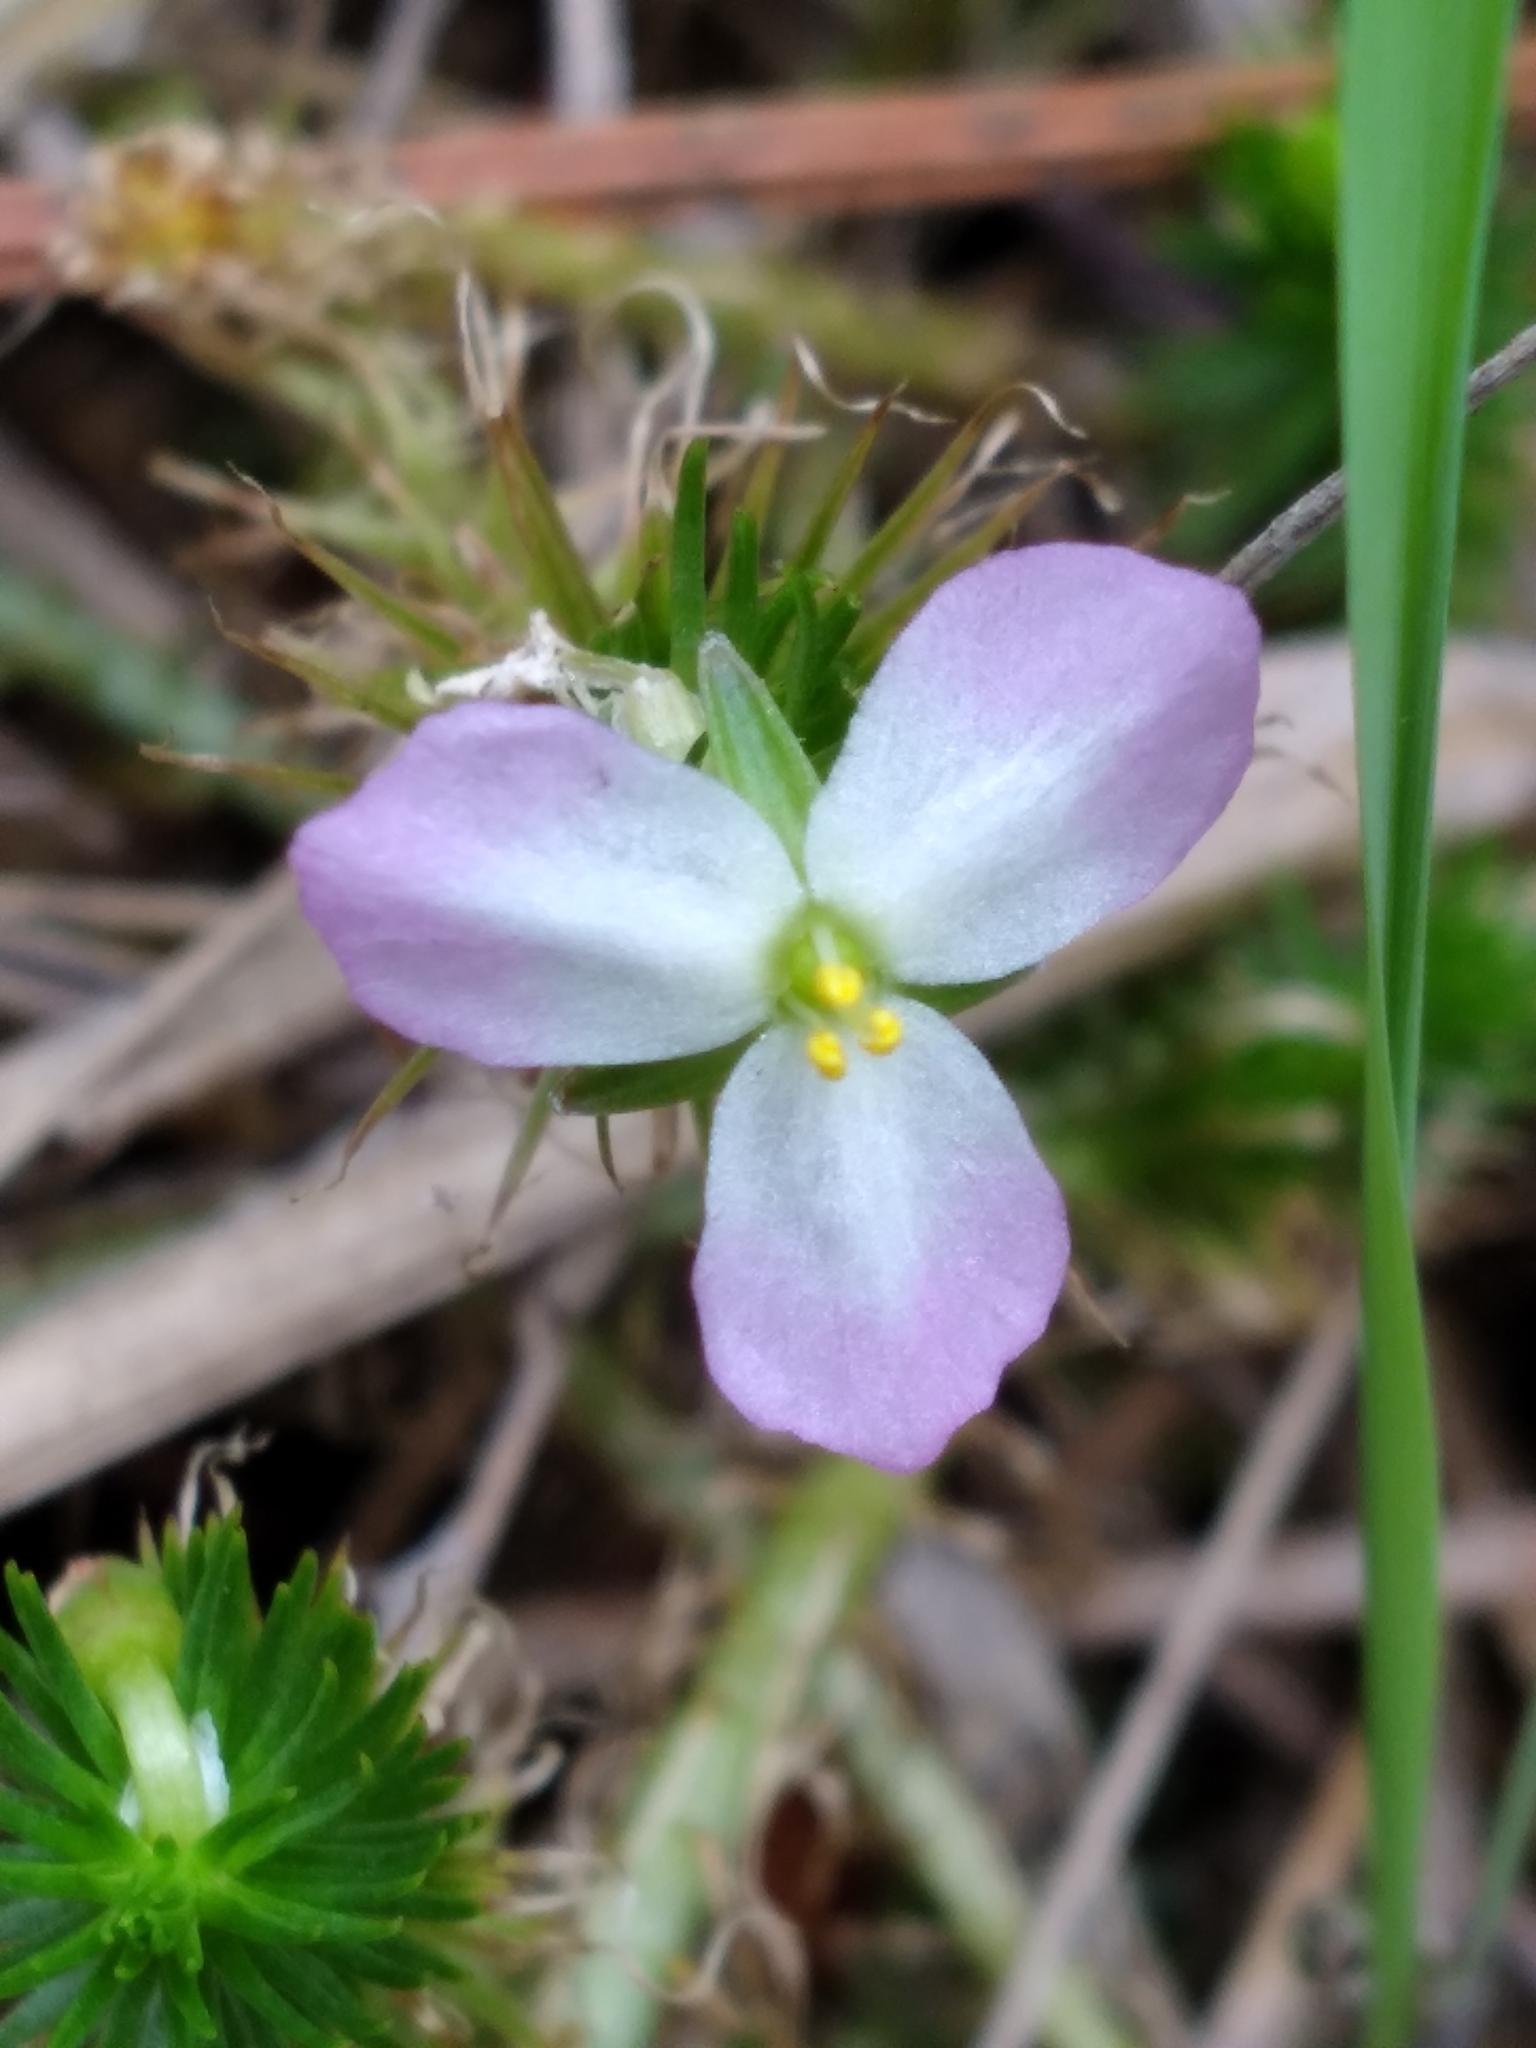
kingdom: Plantae
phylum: Tracheophyta
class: Liliopsida
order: Poales
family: Mayacaceae
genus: Mayaca
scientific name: Mayaca fluviatilis
